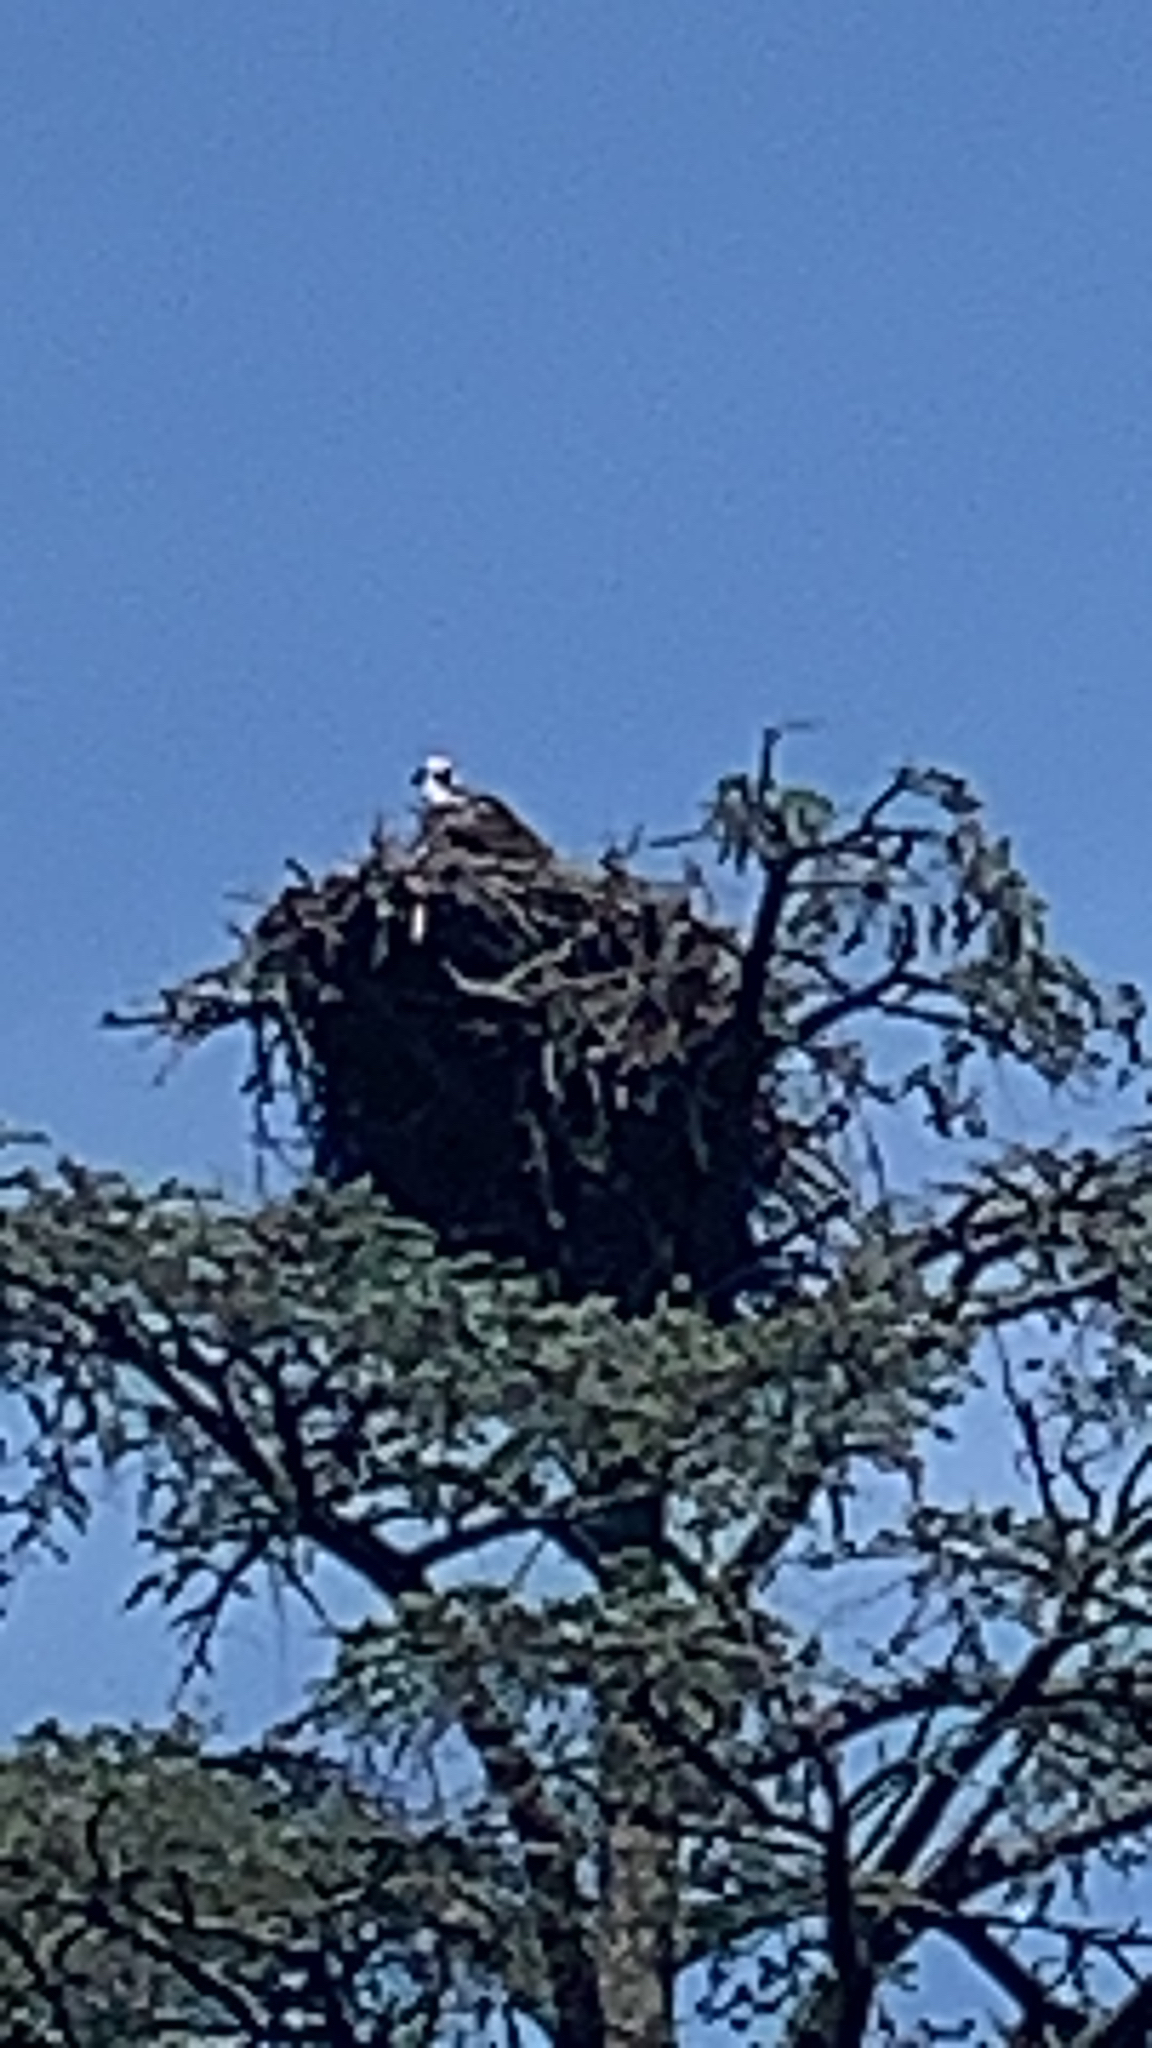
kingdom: Animalia
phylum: Chordata
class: Aves
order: Accipitriformes
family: Pandionidae
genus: Pandion
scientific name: Pandion haliaetus
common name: Osprey
